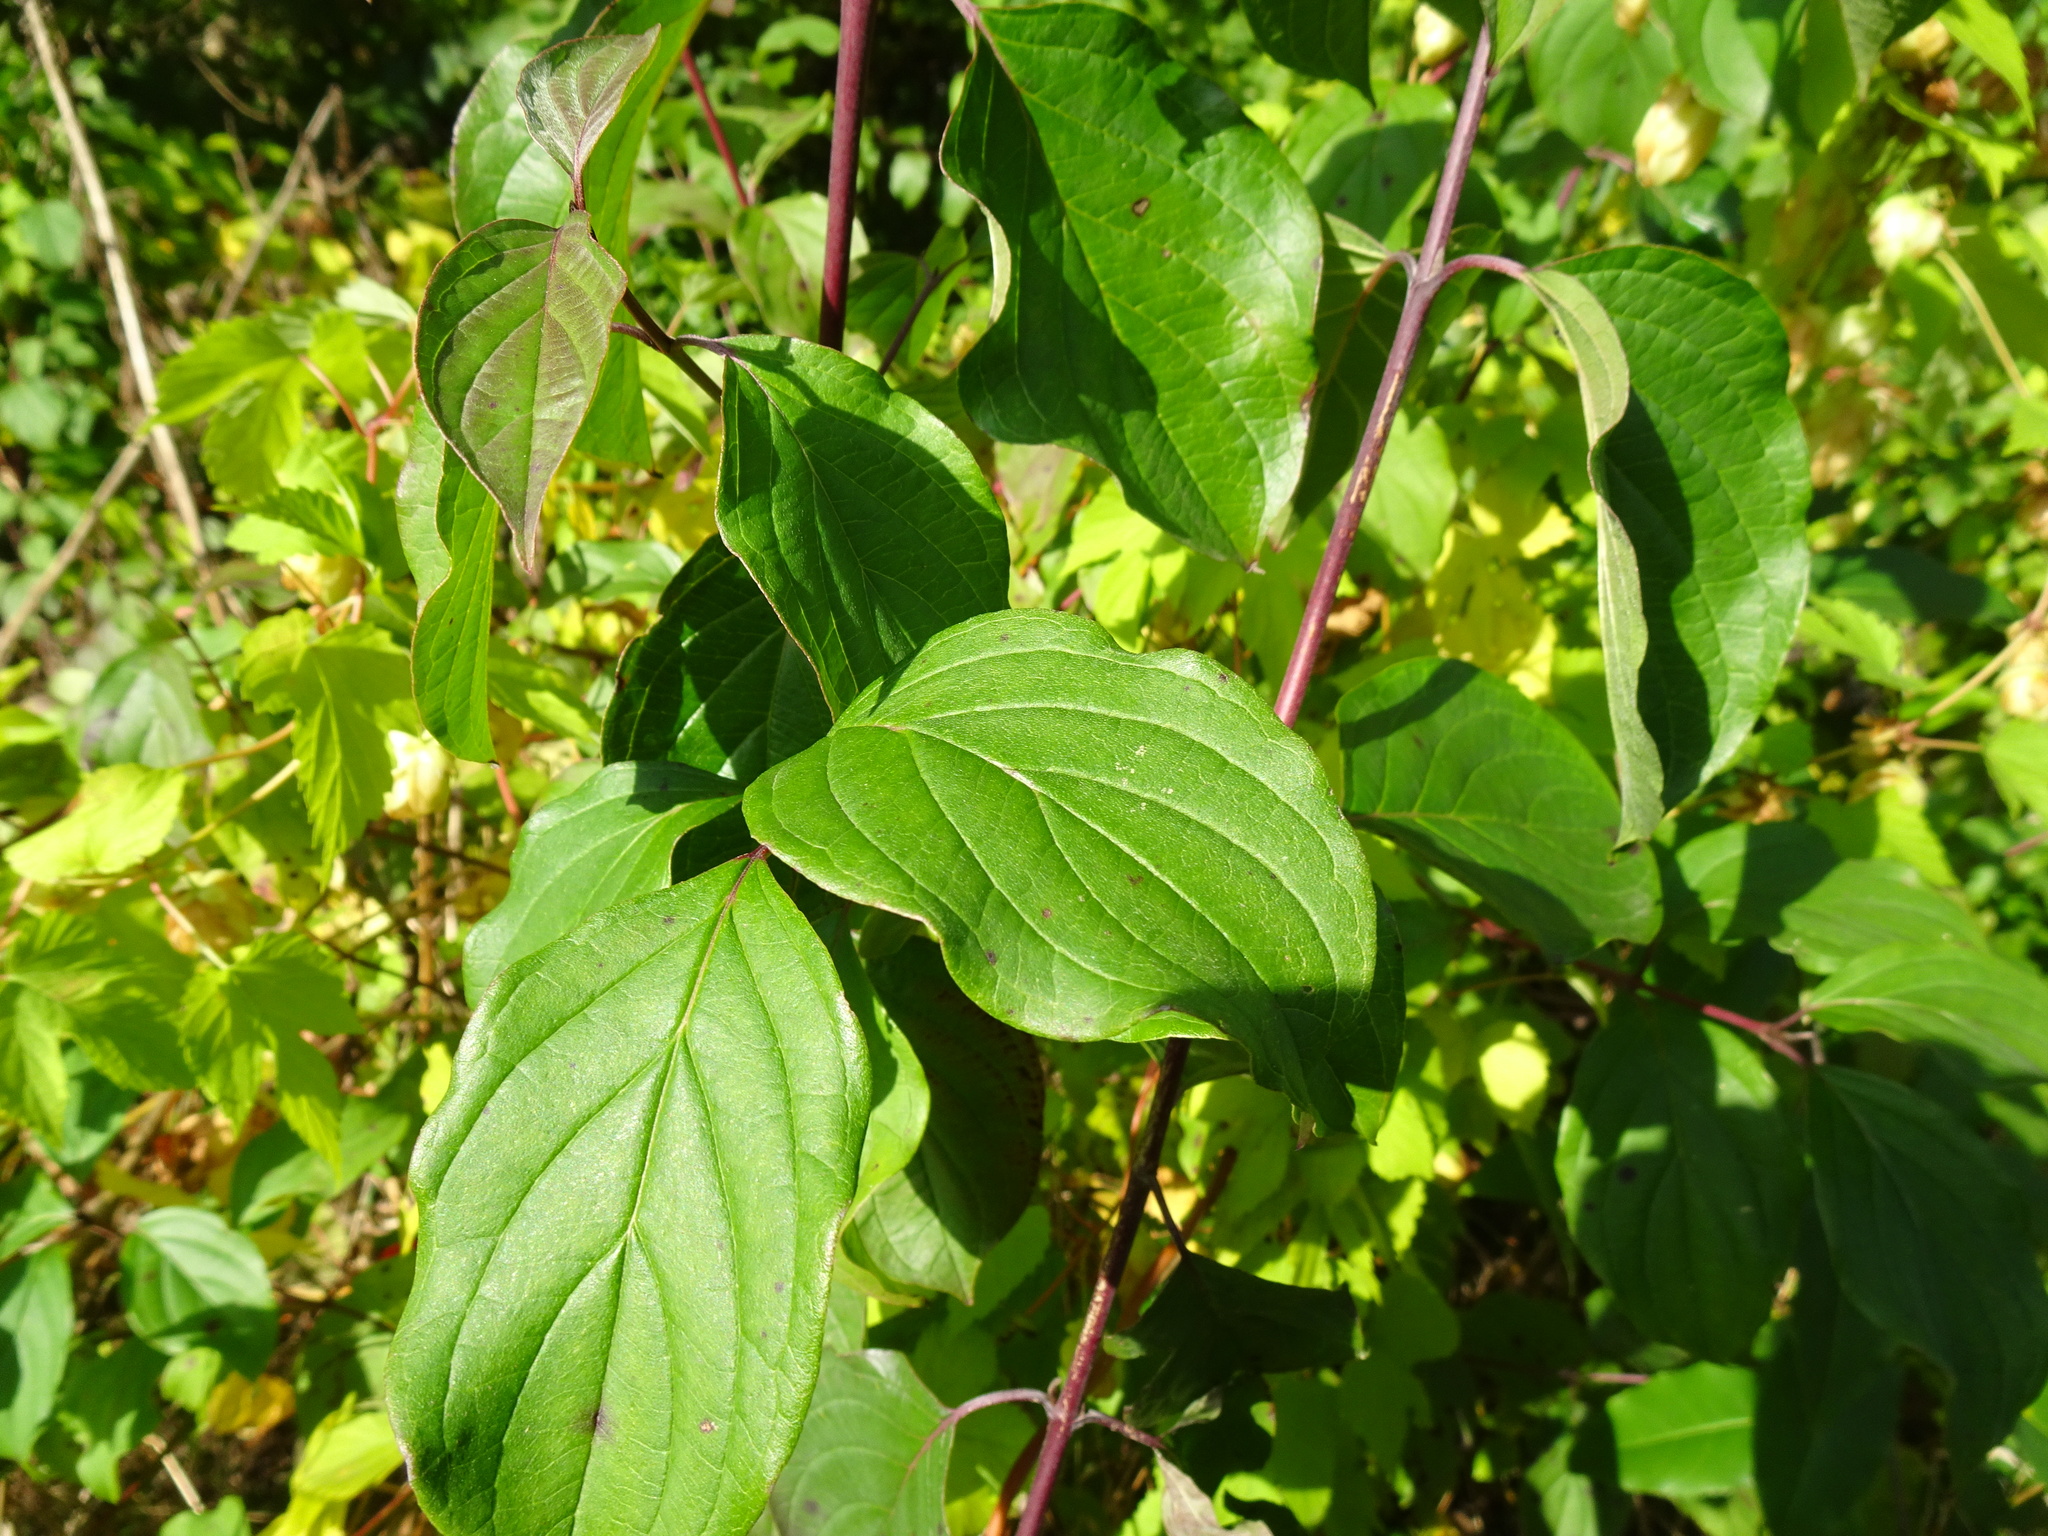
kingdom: Plantae
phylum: Tracheophyta
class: Magnoliopsida
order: Cornales
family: Cornaceae
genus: Cornus
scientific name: Cornus sanguinea
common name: Dogwood
